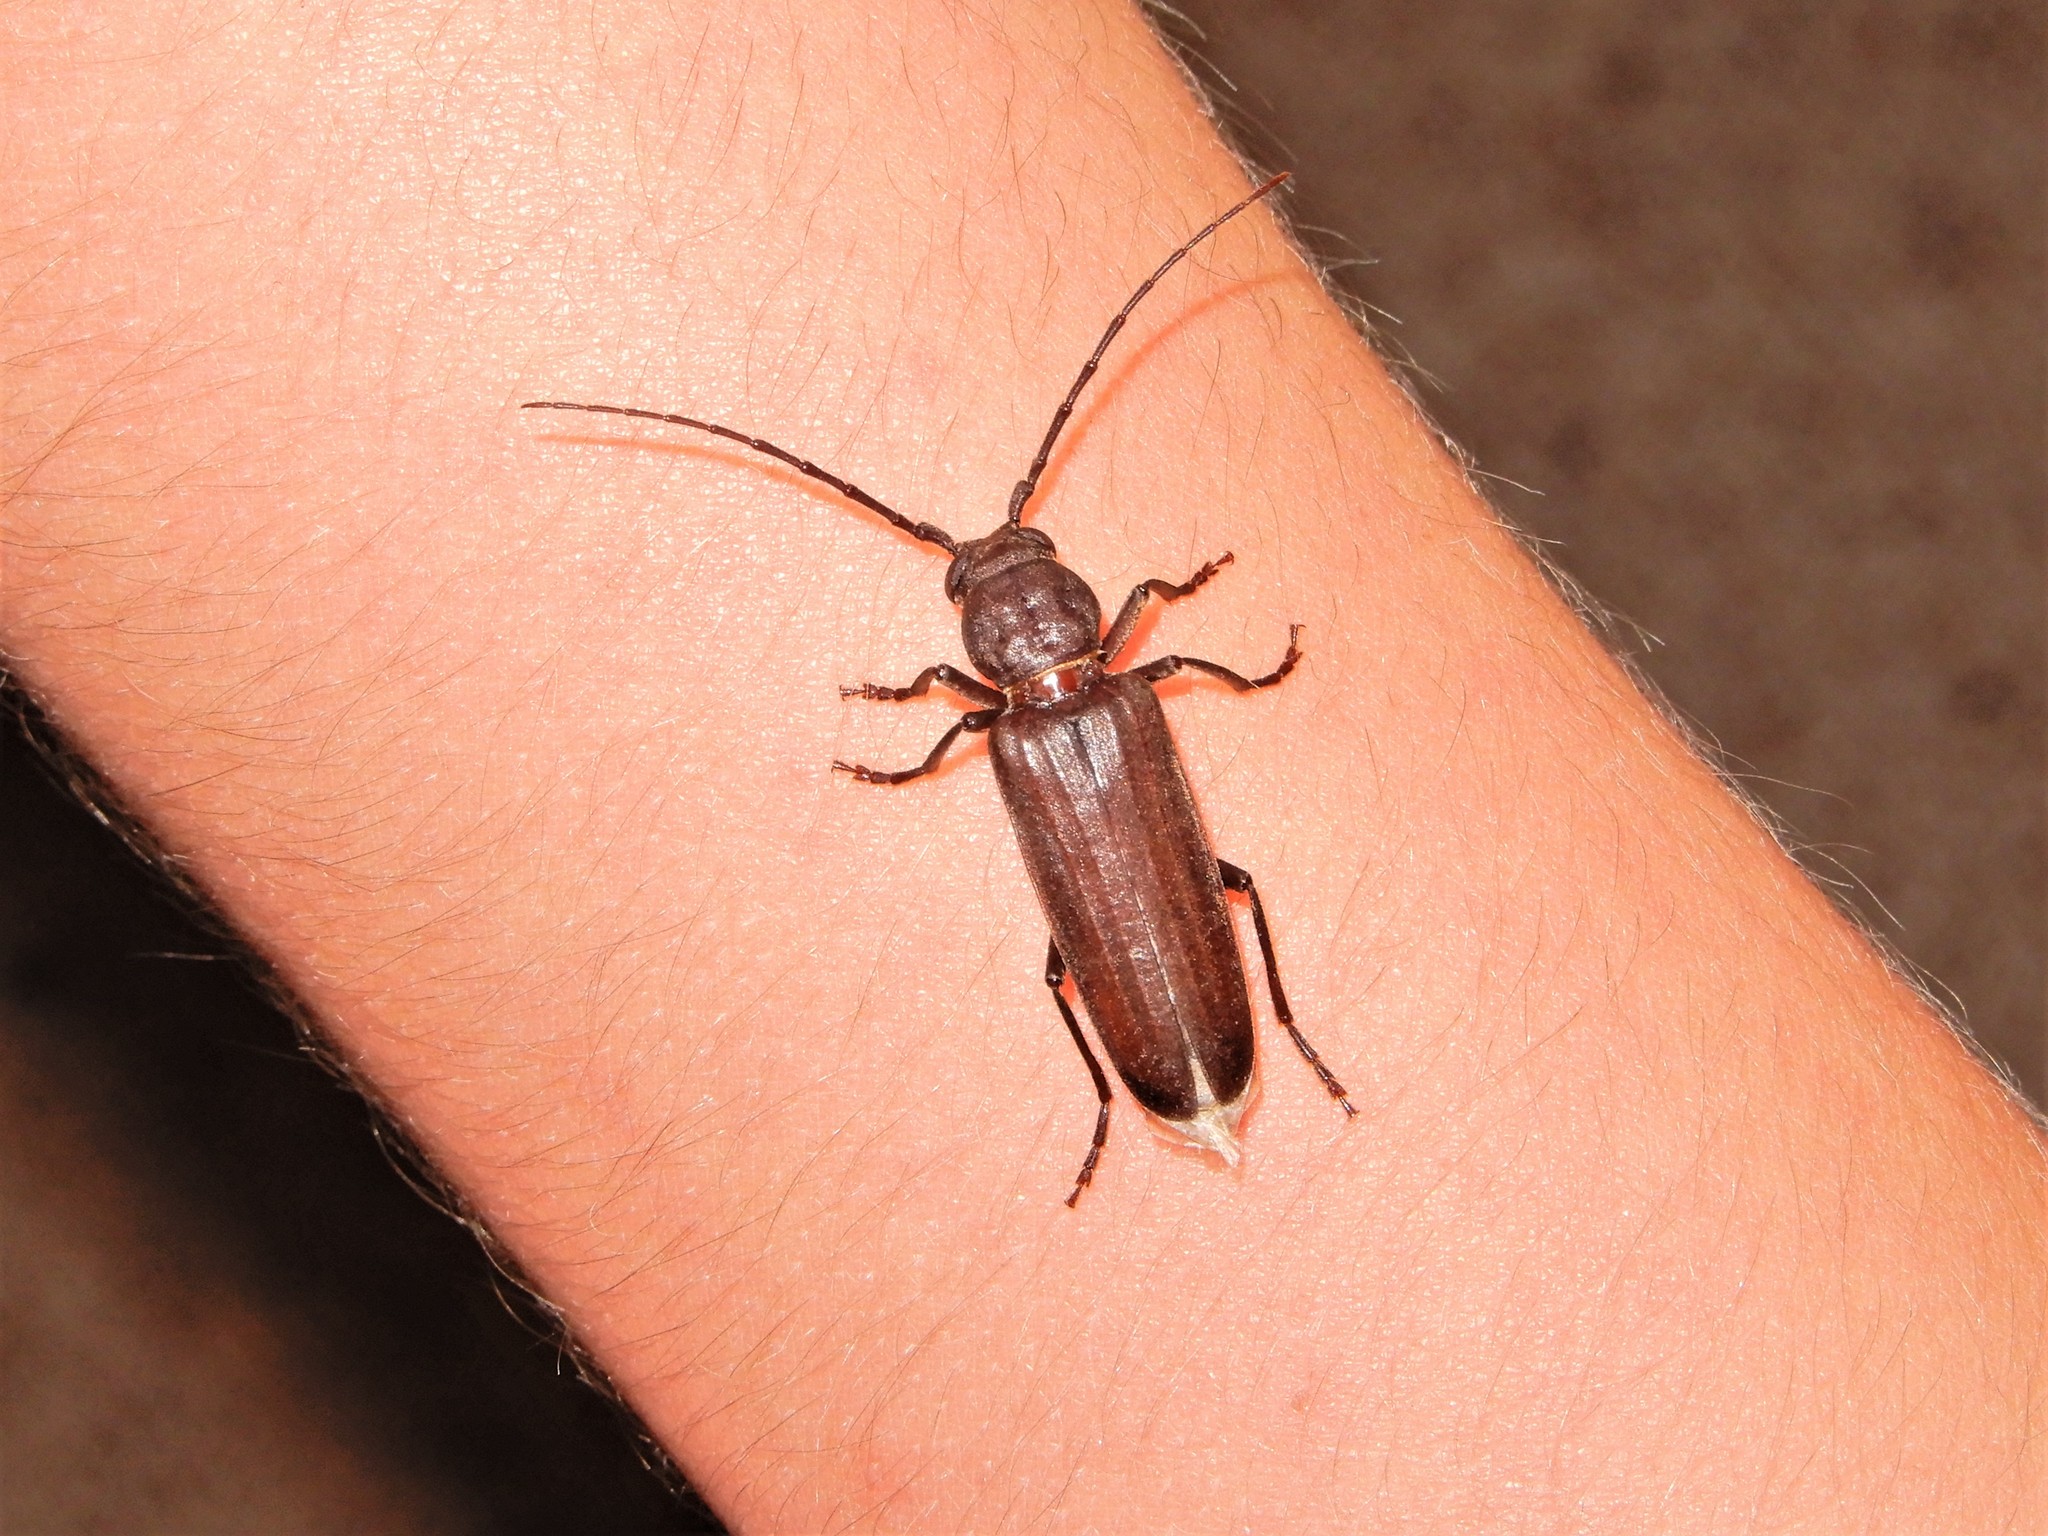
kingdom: Animalia
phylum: Arthropoda
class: Insecta
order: Coleoptera
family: Cerambycidae
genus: Arhopalus
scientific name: Arhopalus ferus
